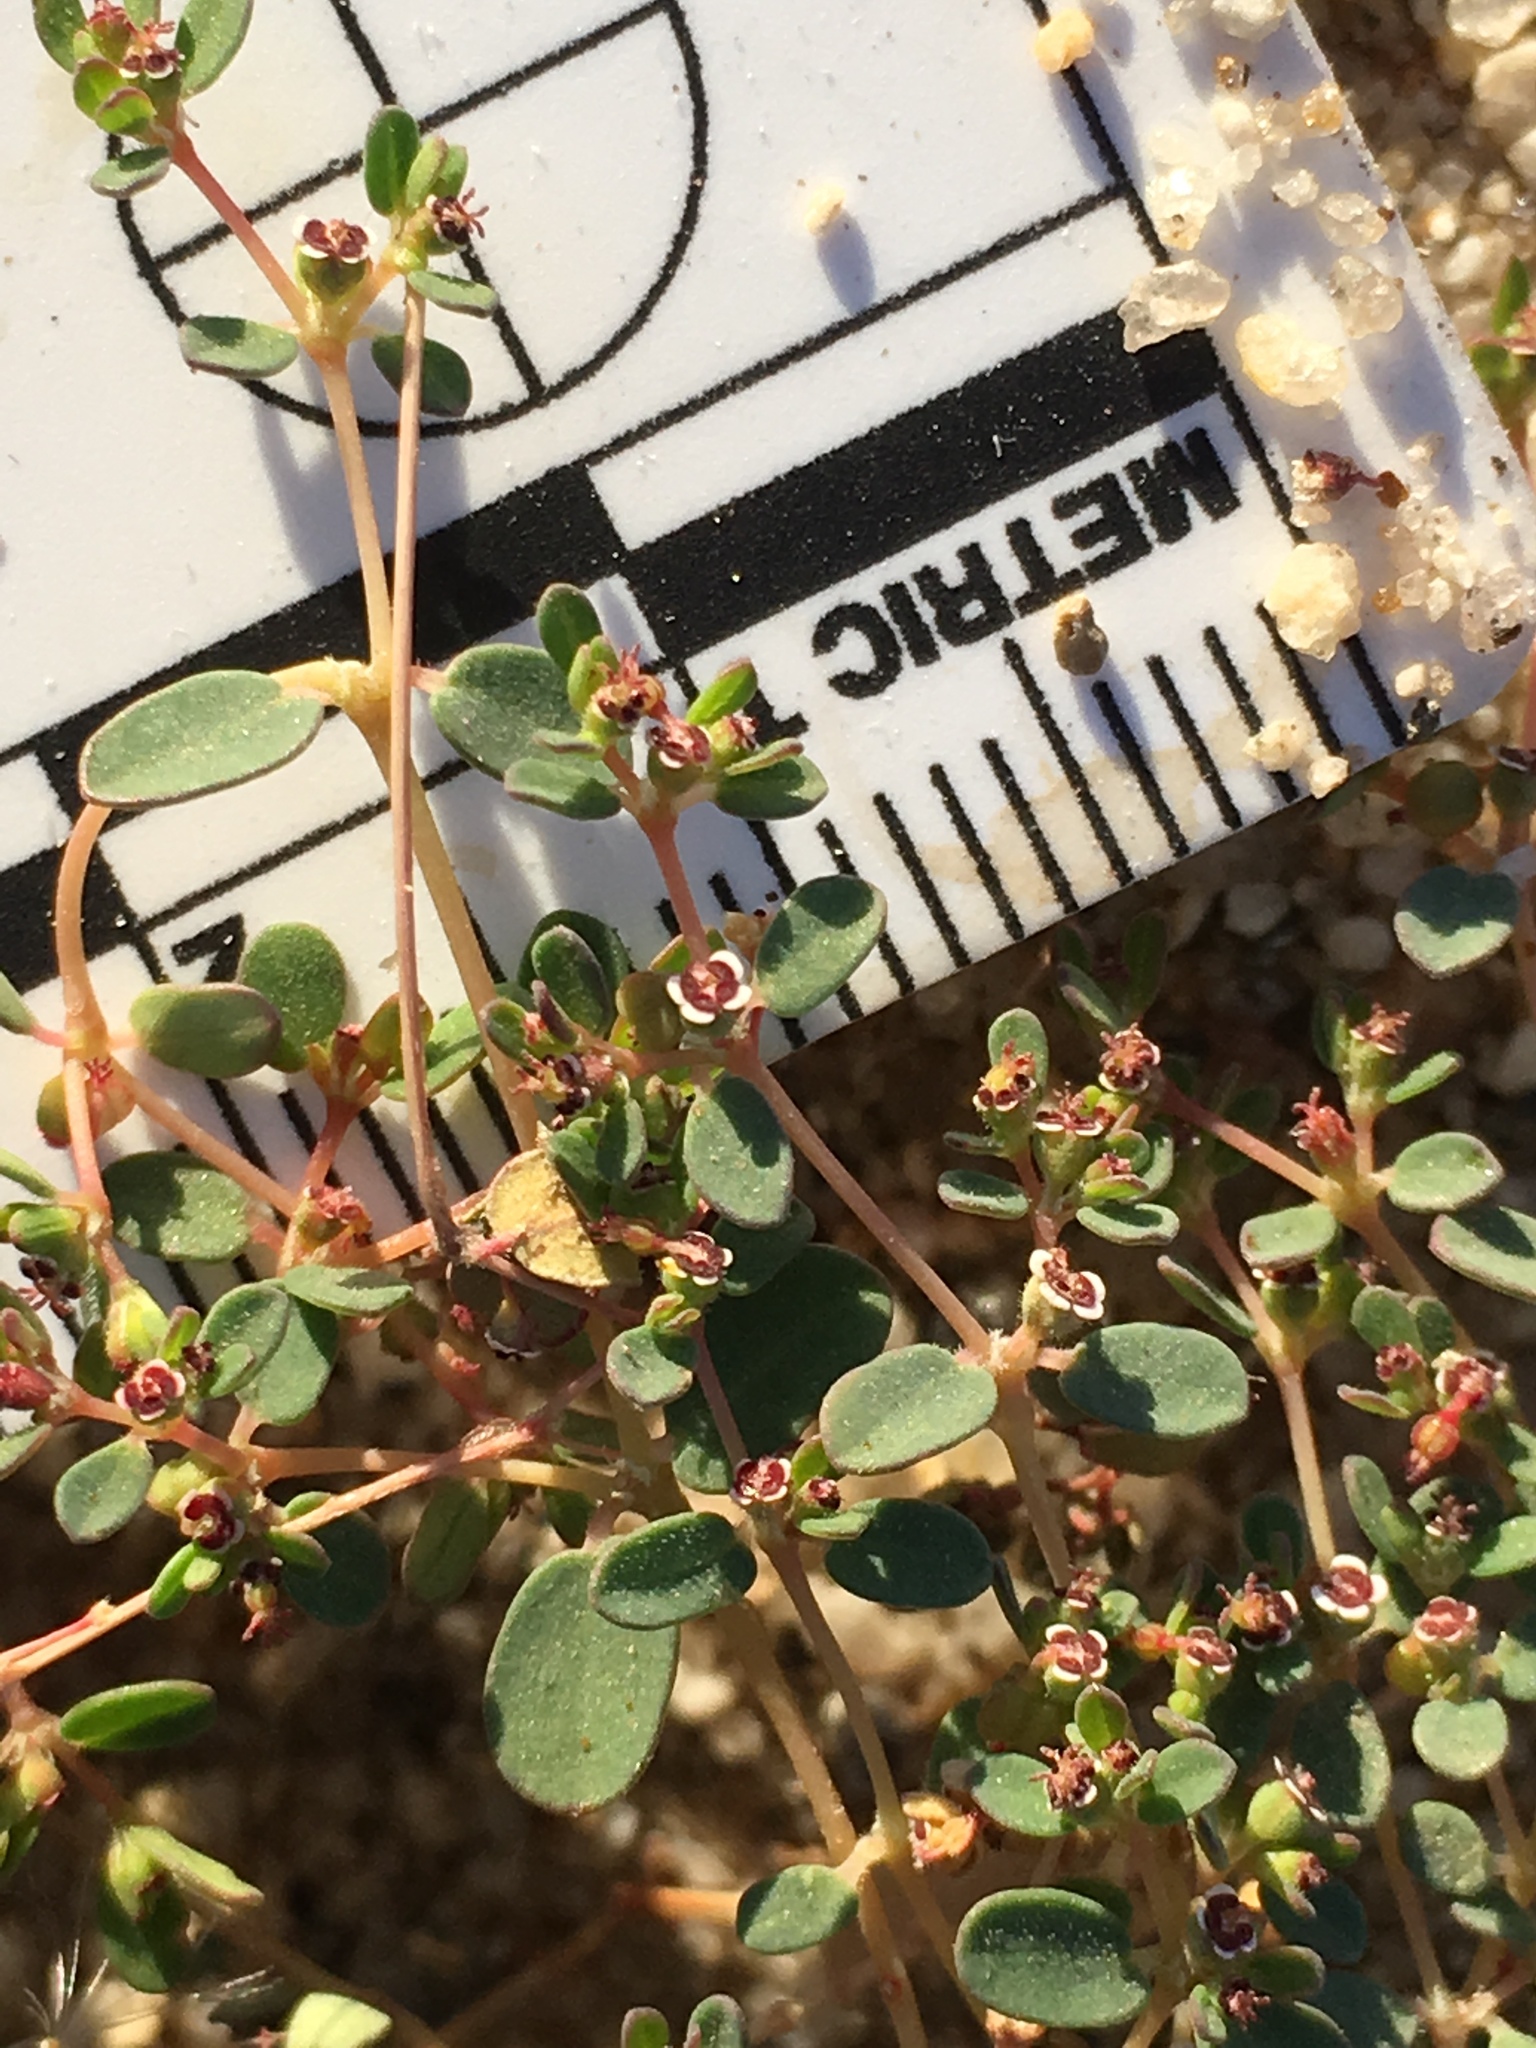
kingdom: Plantae
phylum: Tracheophyta
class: Magnoliopsida
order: Malpighiales
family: Euphorbiaceae
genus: Euphorbia
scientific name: Euphorbia polycarpa
